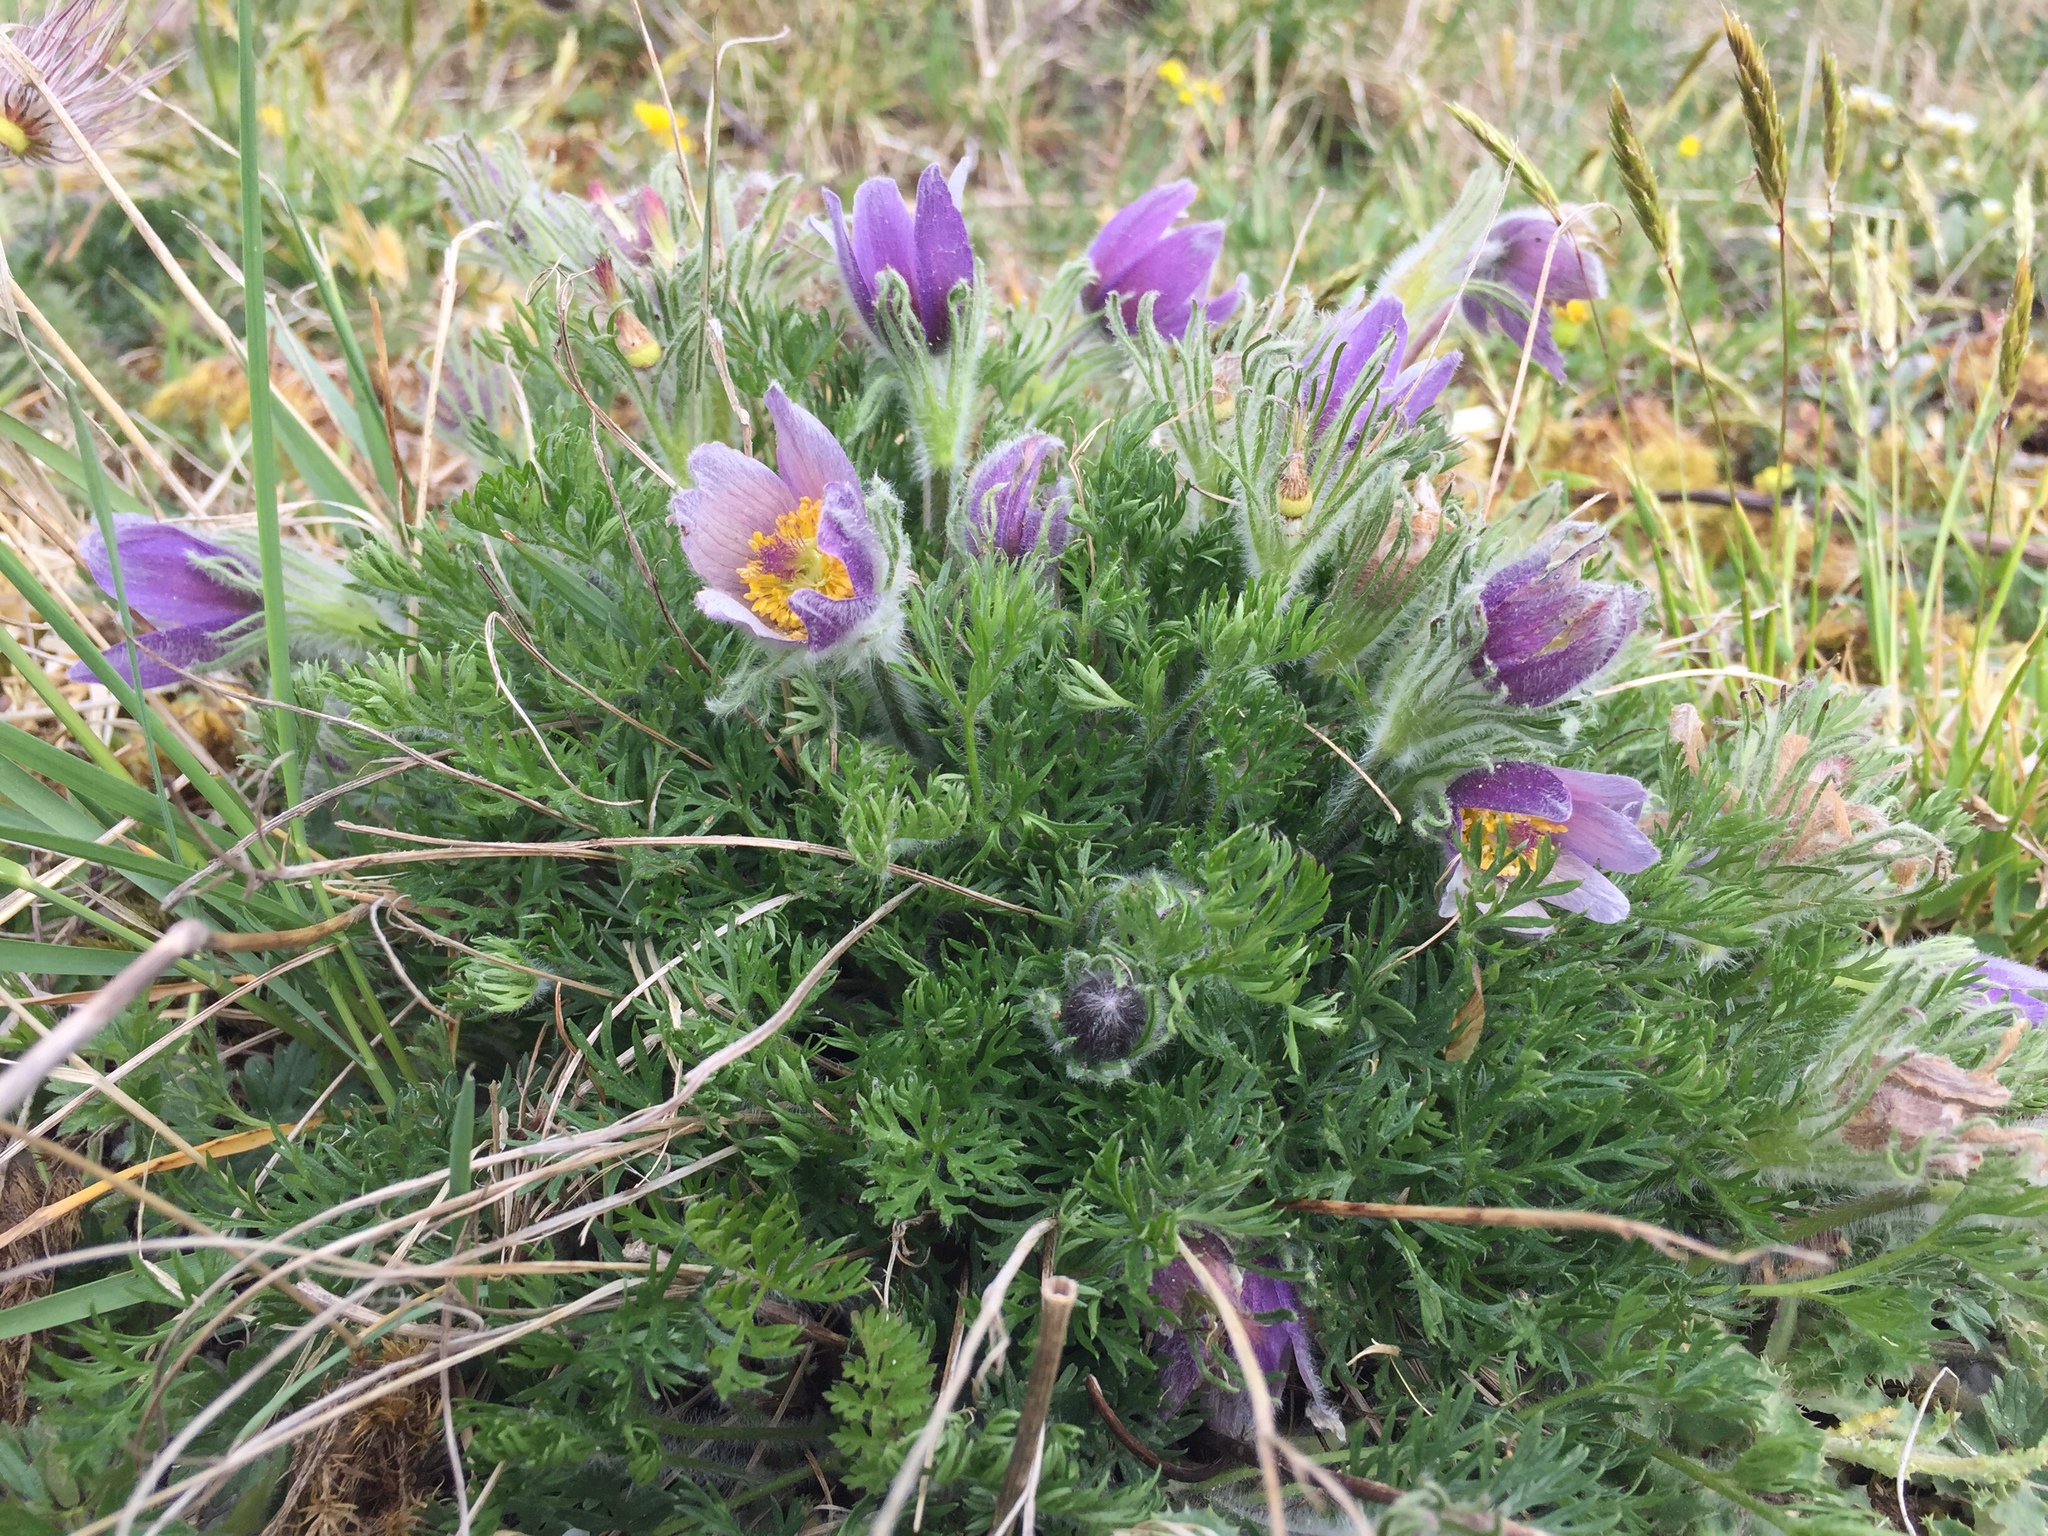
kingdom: Plantae
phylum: Tracheophyta
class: Magnoliopsida
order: Ranunculales
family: Ranunculaceae
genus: Pulsatilla
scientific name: Pulsatilla vulgaris
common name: Pasqueflower
